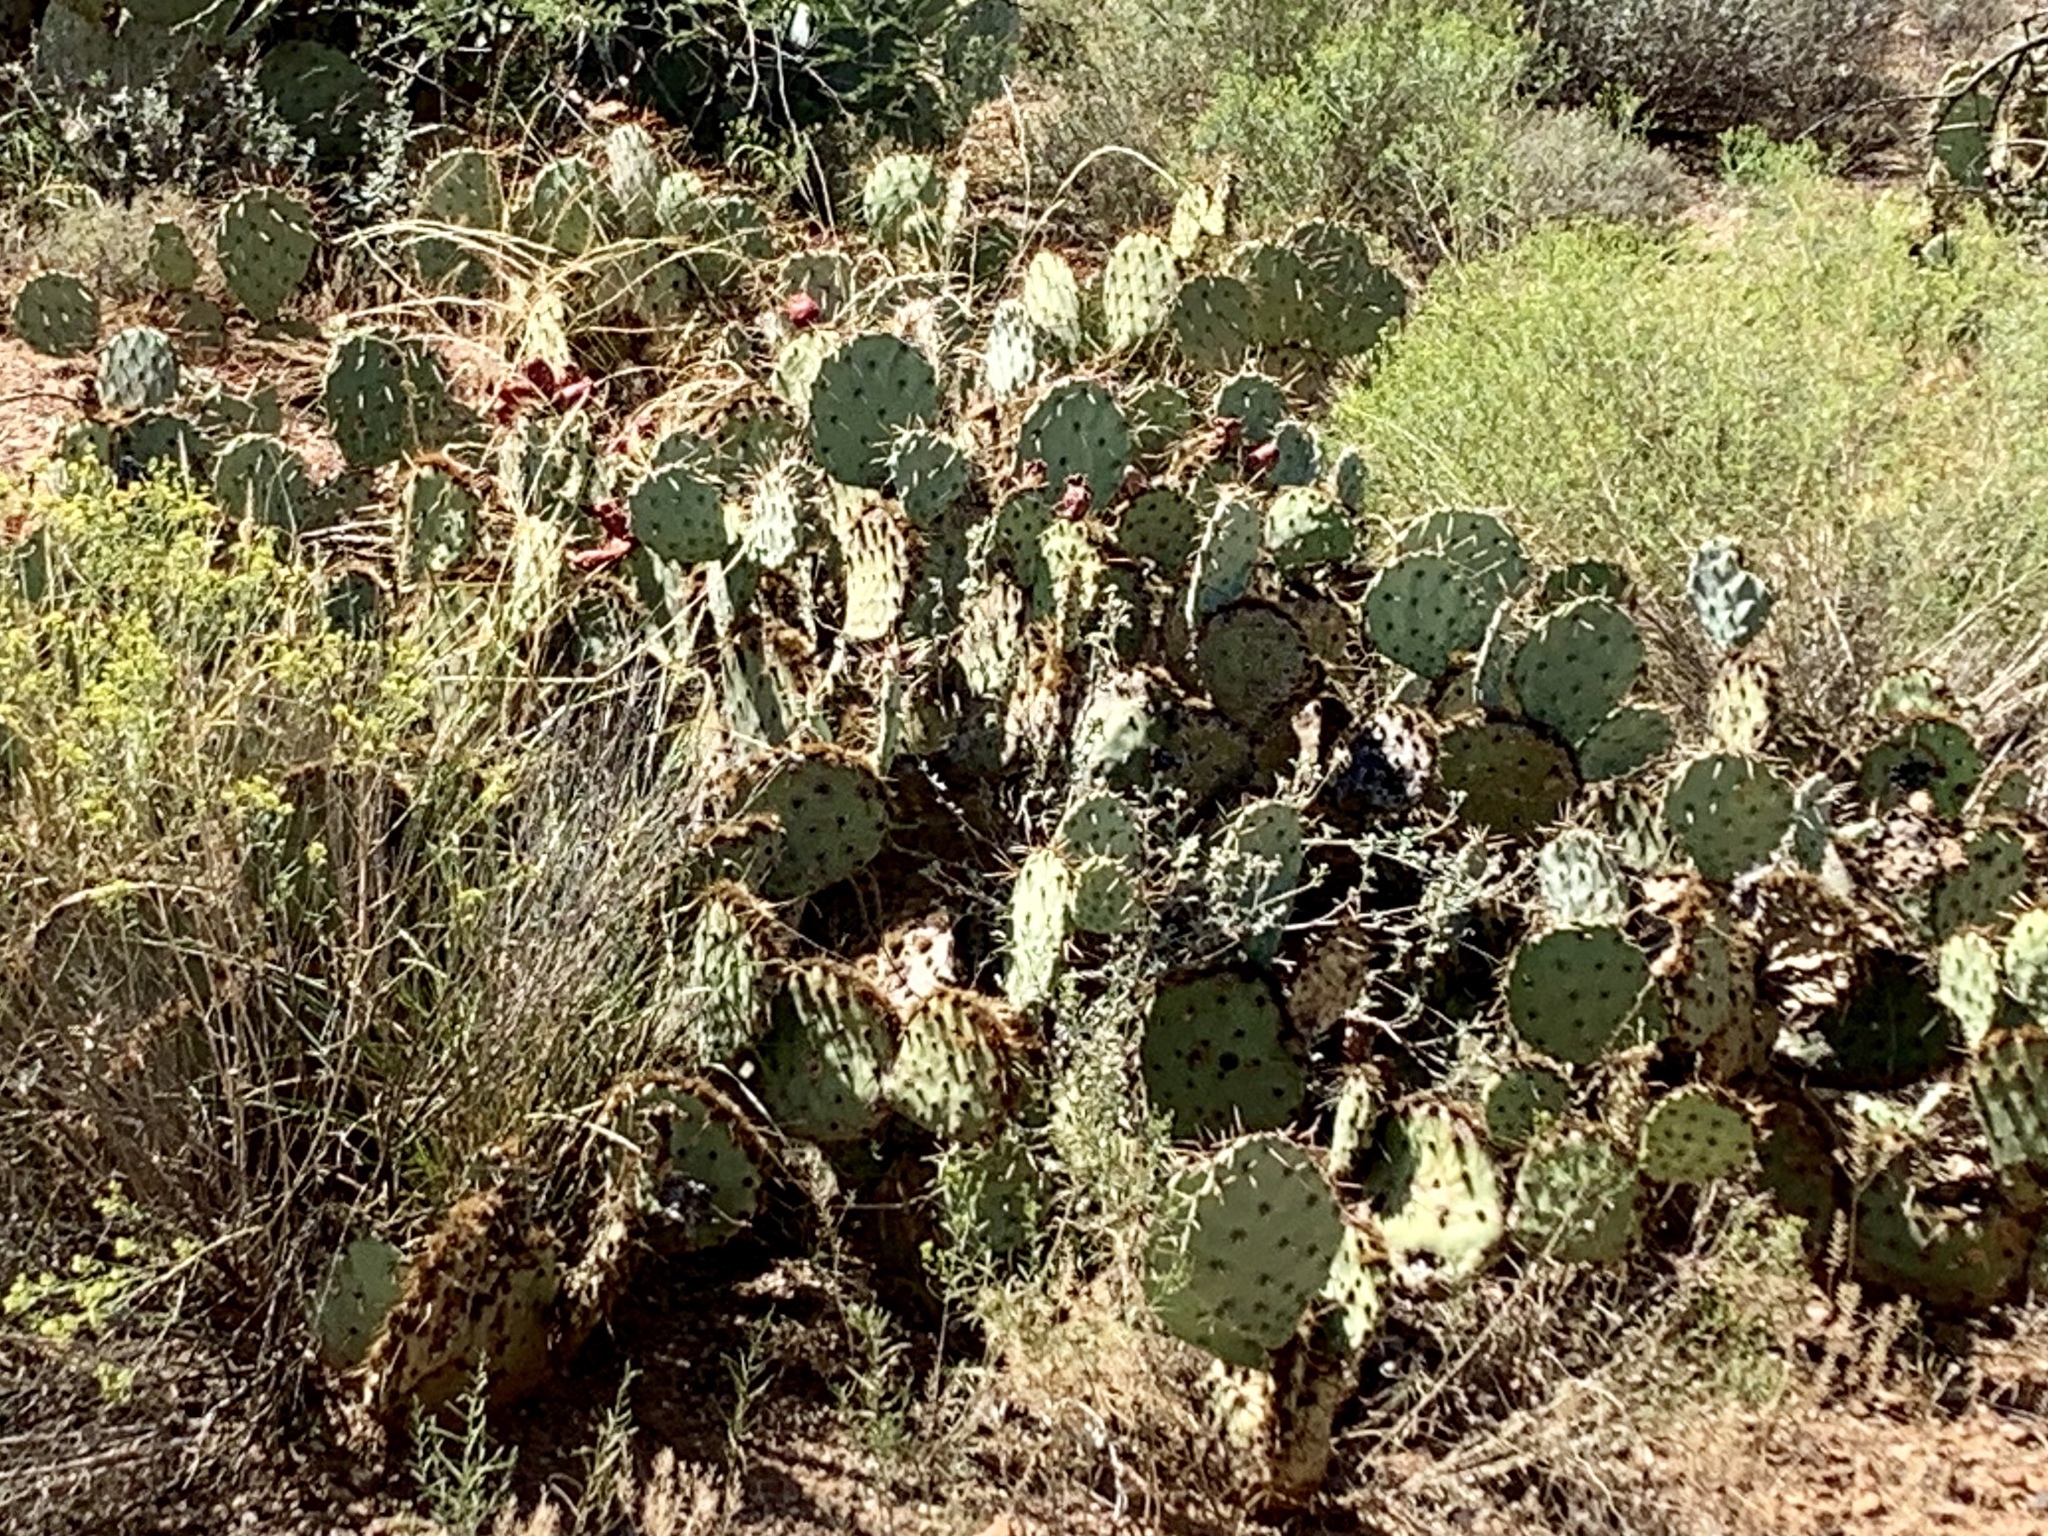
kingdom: Plantae
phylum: Tracheophyta
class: Magnoliopsida
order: Caryophyllales
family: Cactaceae
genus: Opuntia
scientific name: Opuntia engelmannii
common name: Cactus-apple
